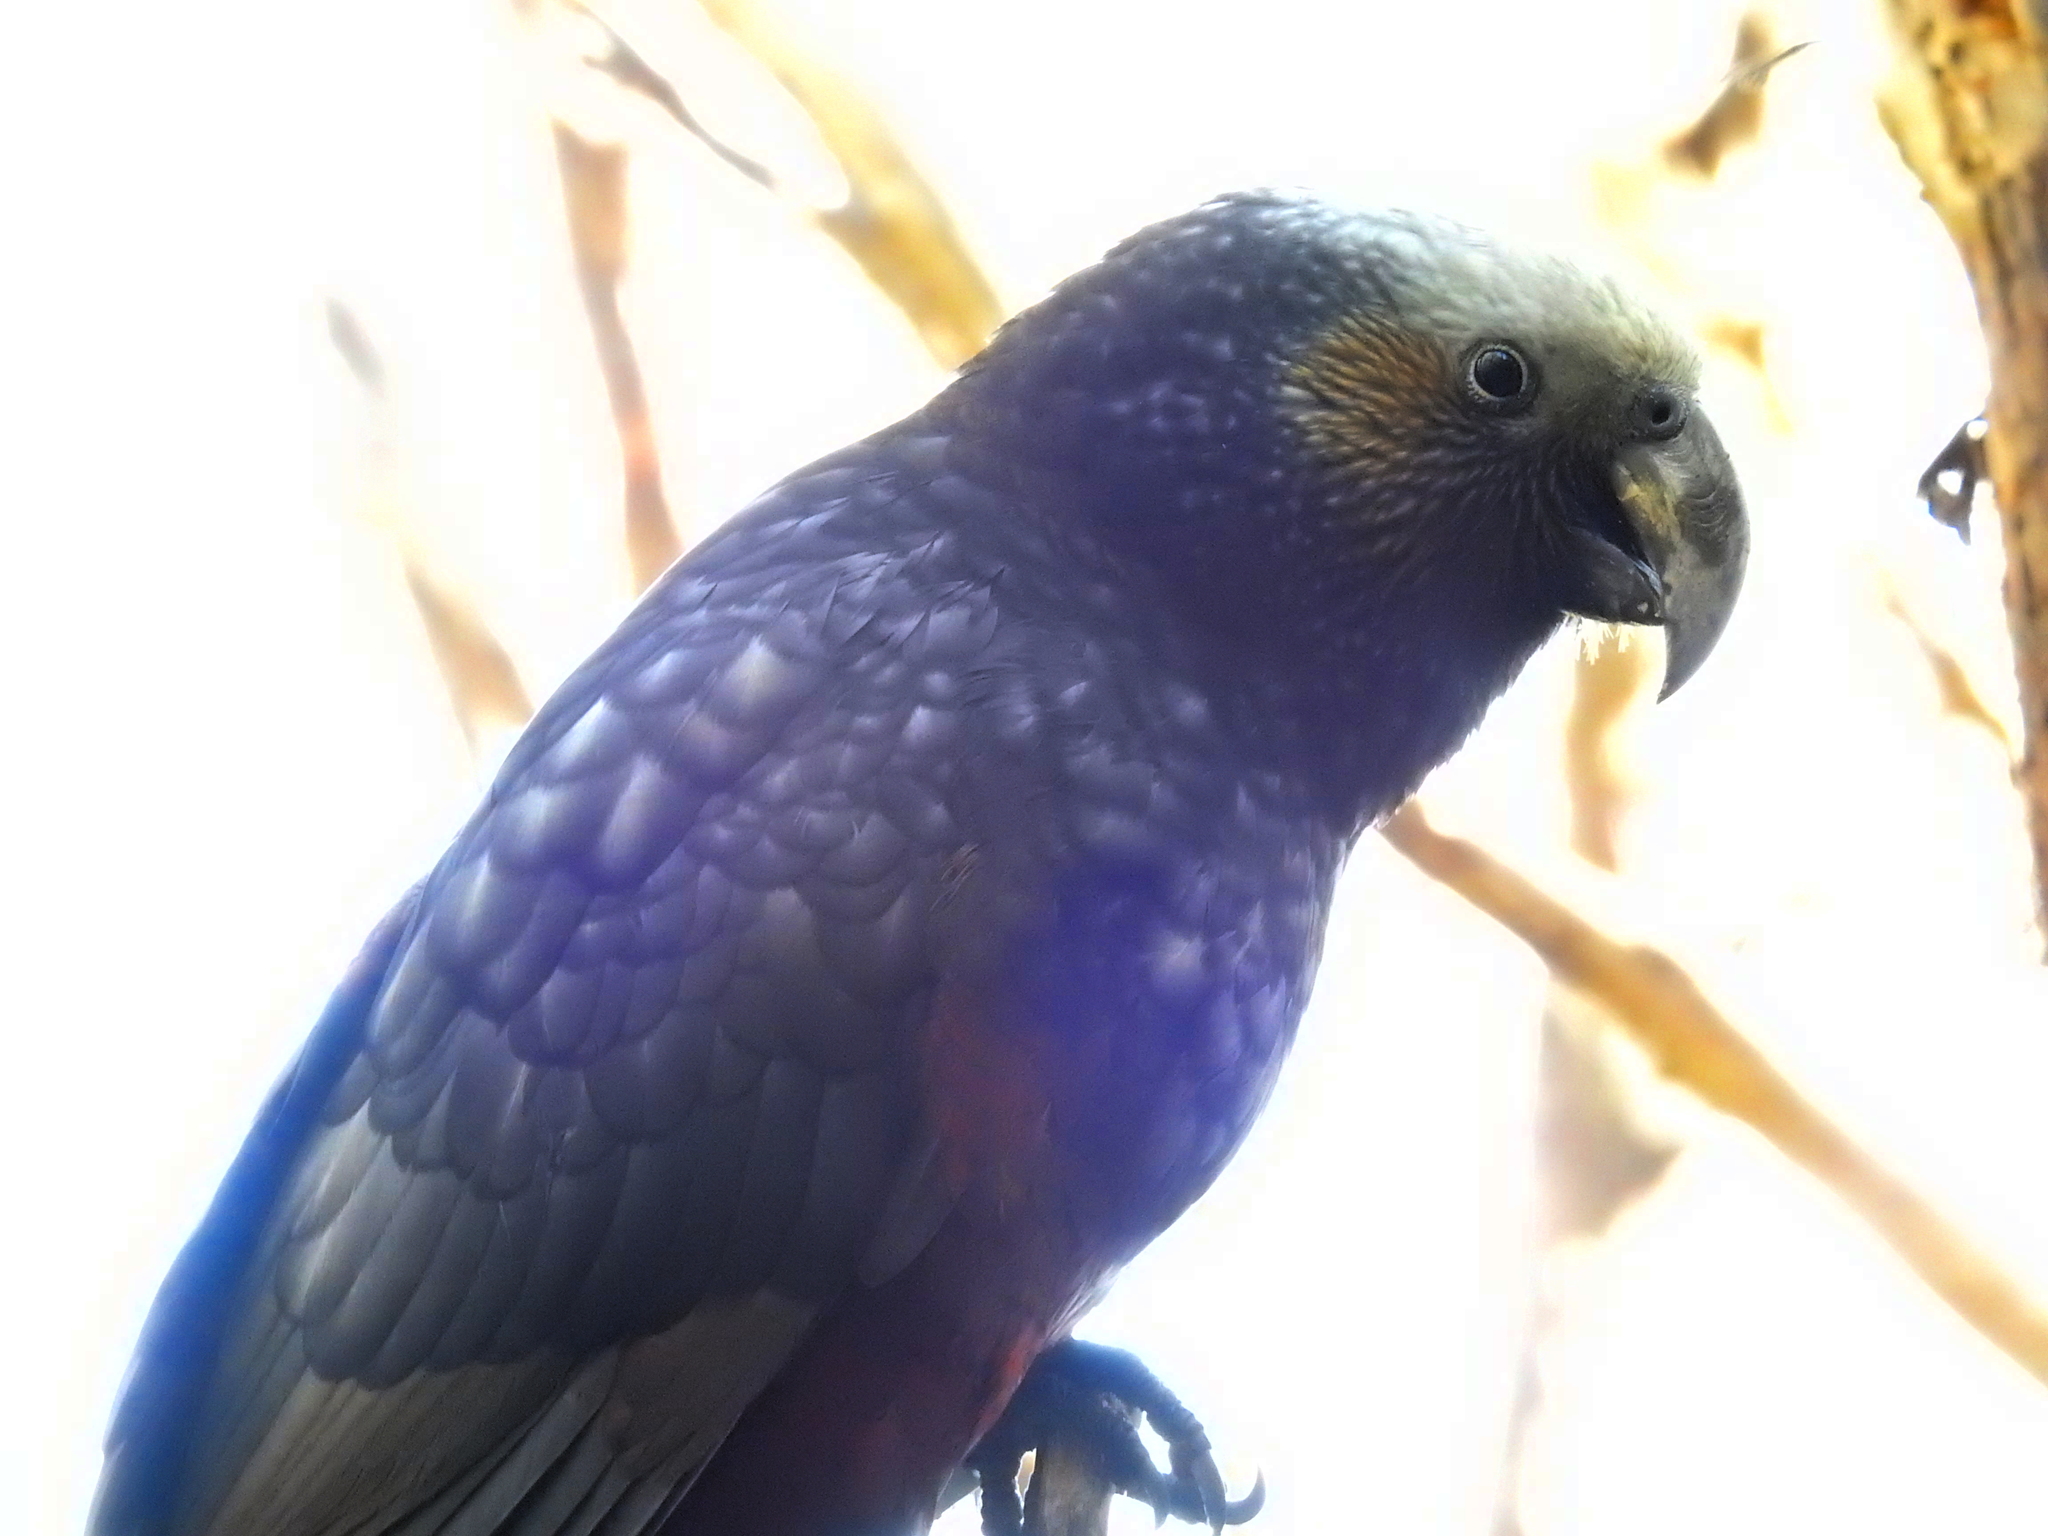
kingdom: Animalia
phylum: Chordata
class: Aves
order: Psittaciformes
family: Psittacidae
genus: Nestor
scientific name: Nestor meridionalis
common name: New zealand kaka
